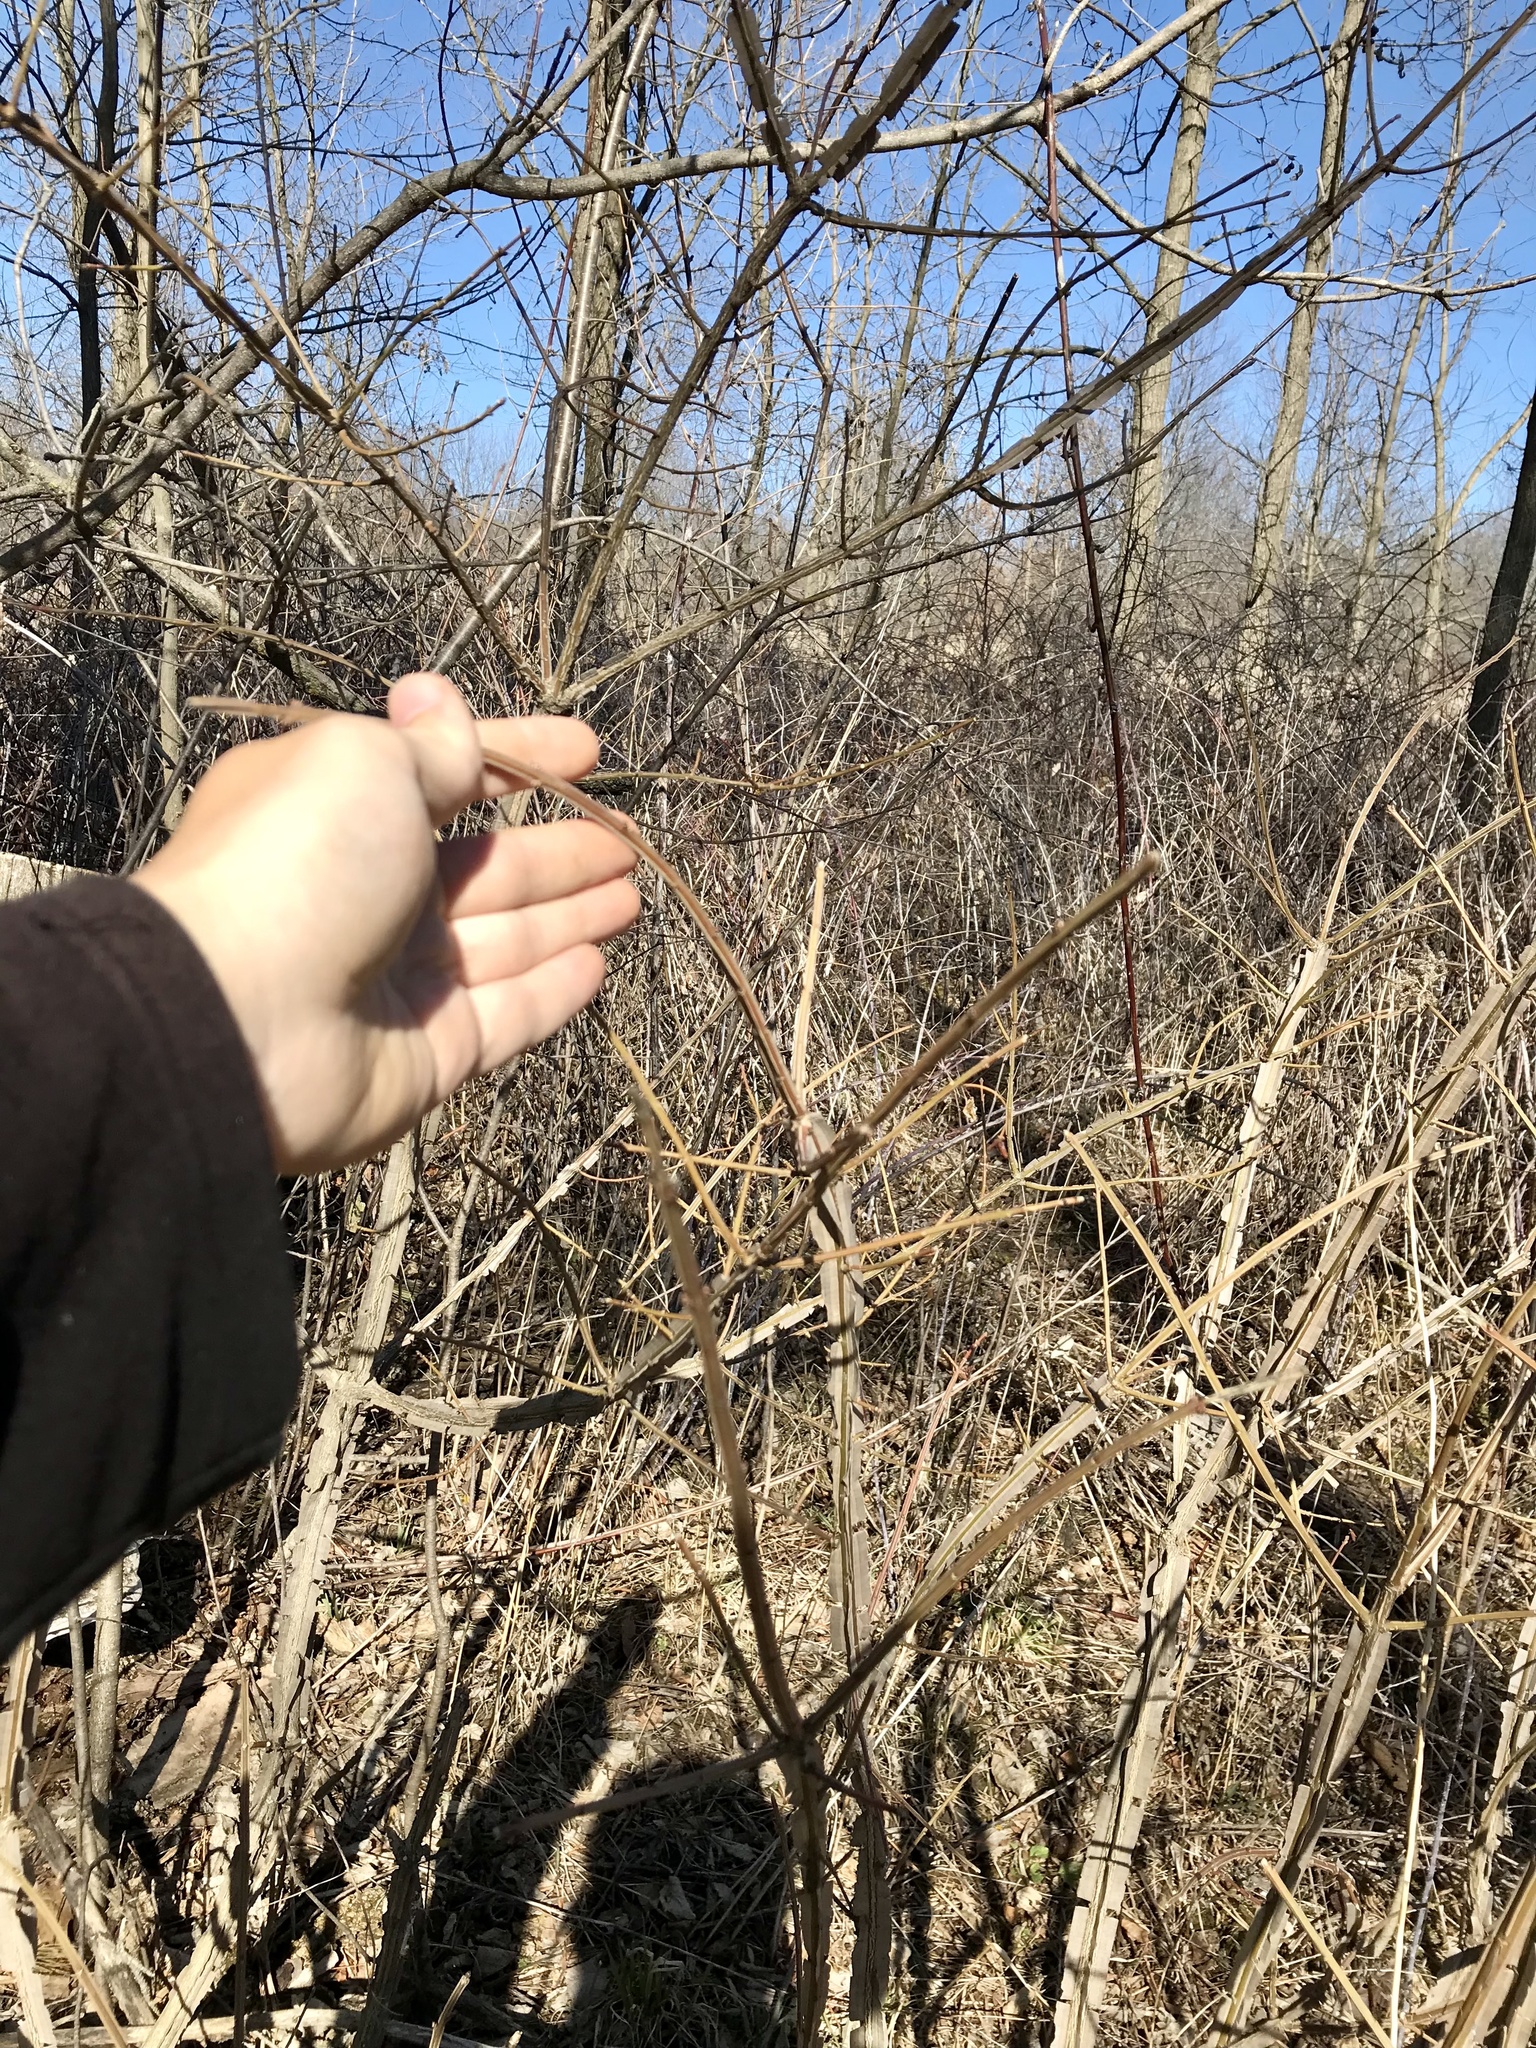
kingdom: Plantae
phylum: Tracheophyta
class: Magnoliopsida
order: Celastrales
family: Celastraceae
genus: Euonymus
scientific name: Euonymus alatus
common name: Winged euonymus
